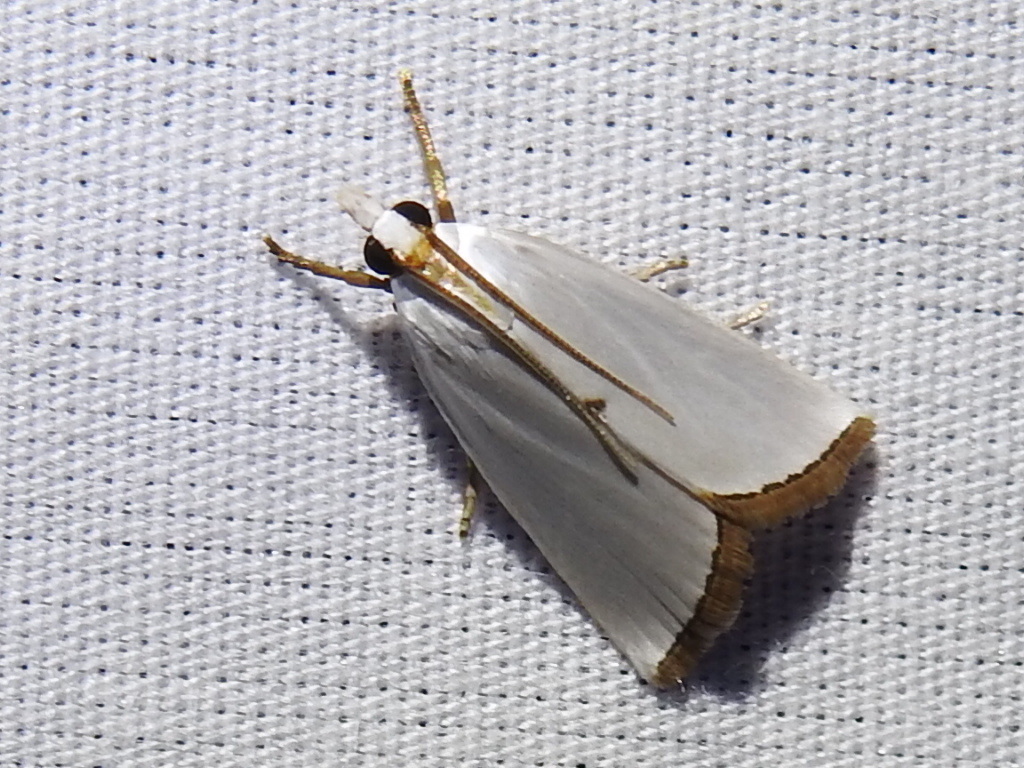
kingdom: Animalia
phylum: Arthropoda
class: Insecta
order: Lepidoptera
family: Crambidae
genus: Argyria
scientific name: Argyria nivalis
